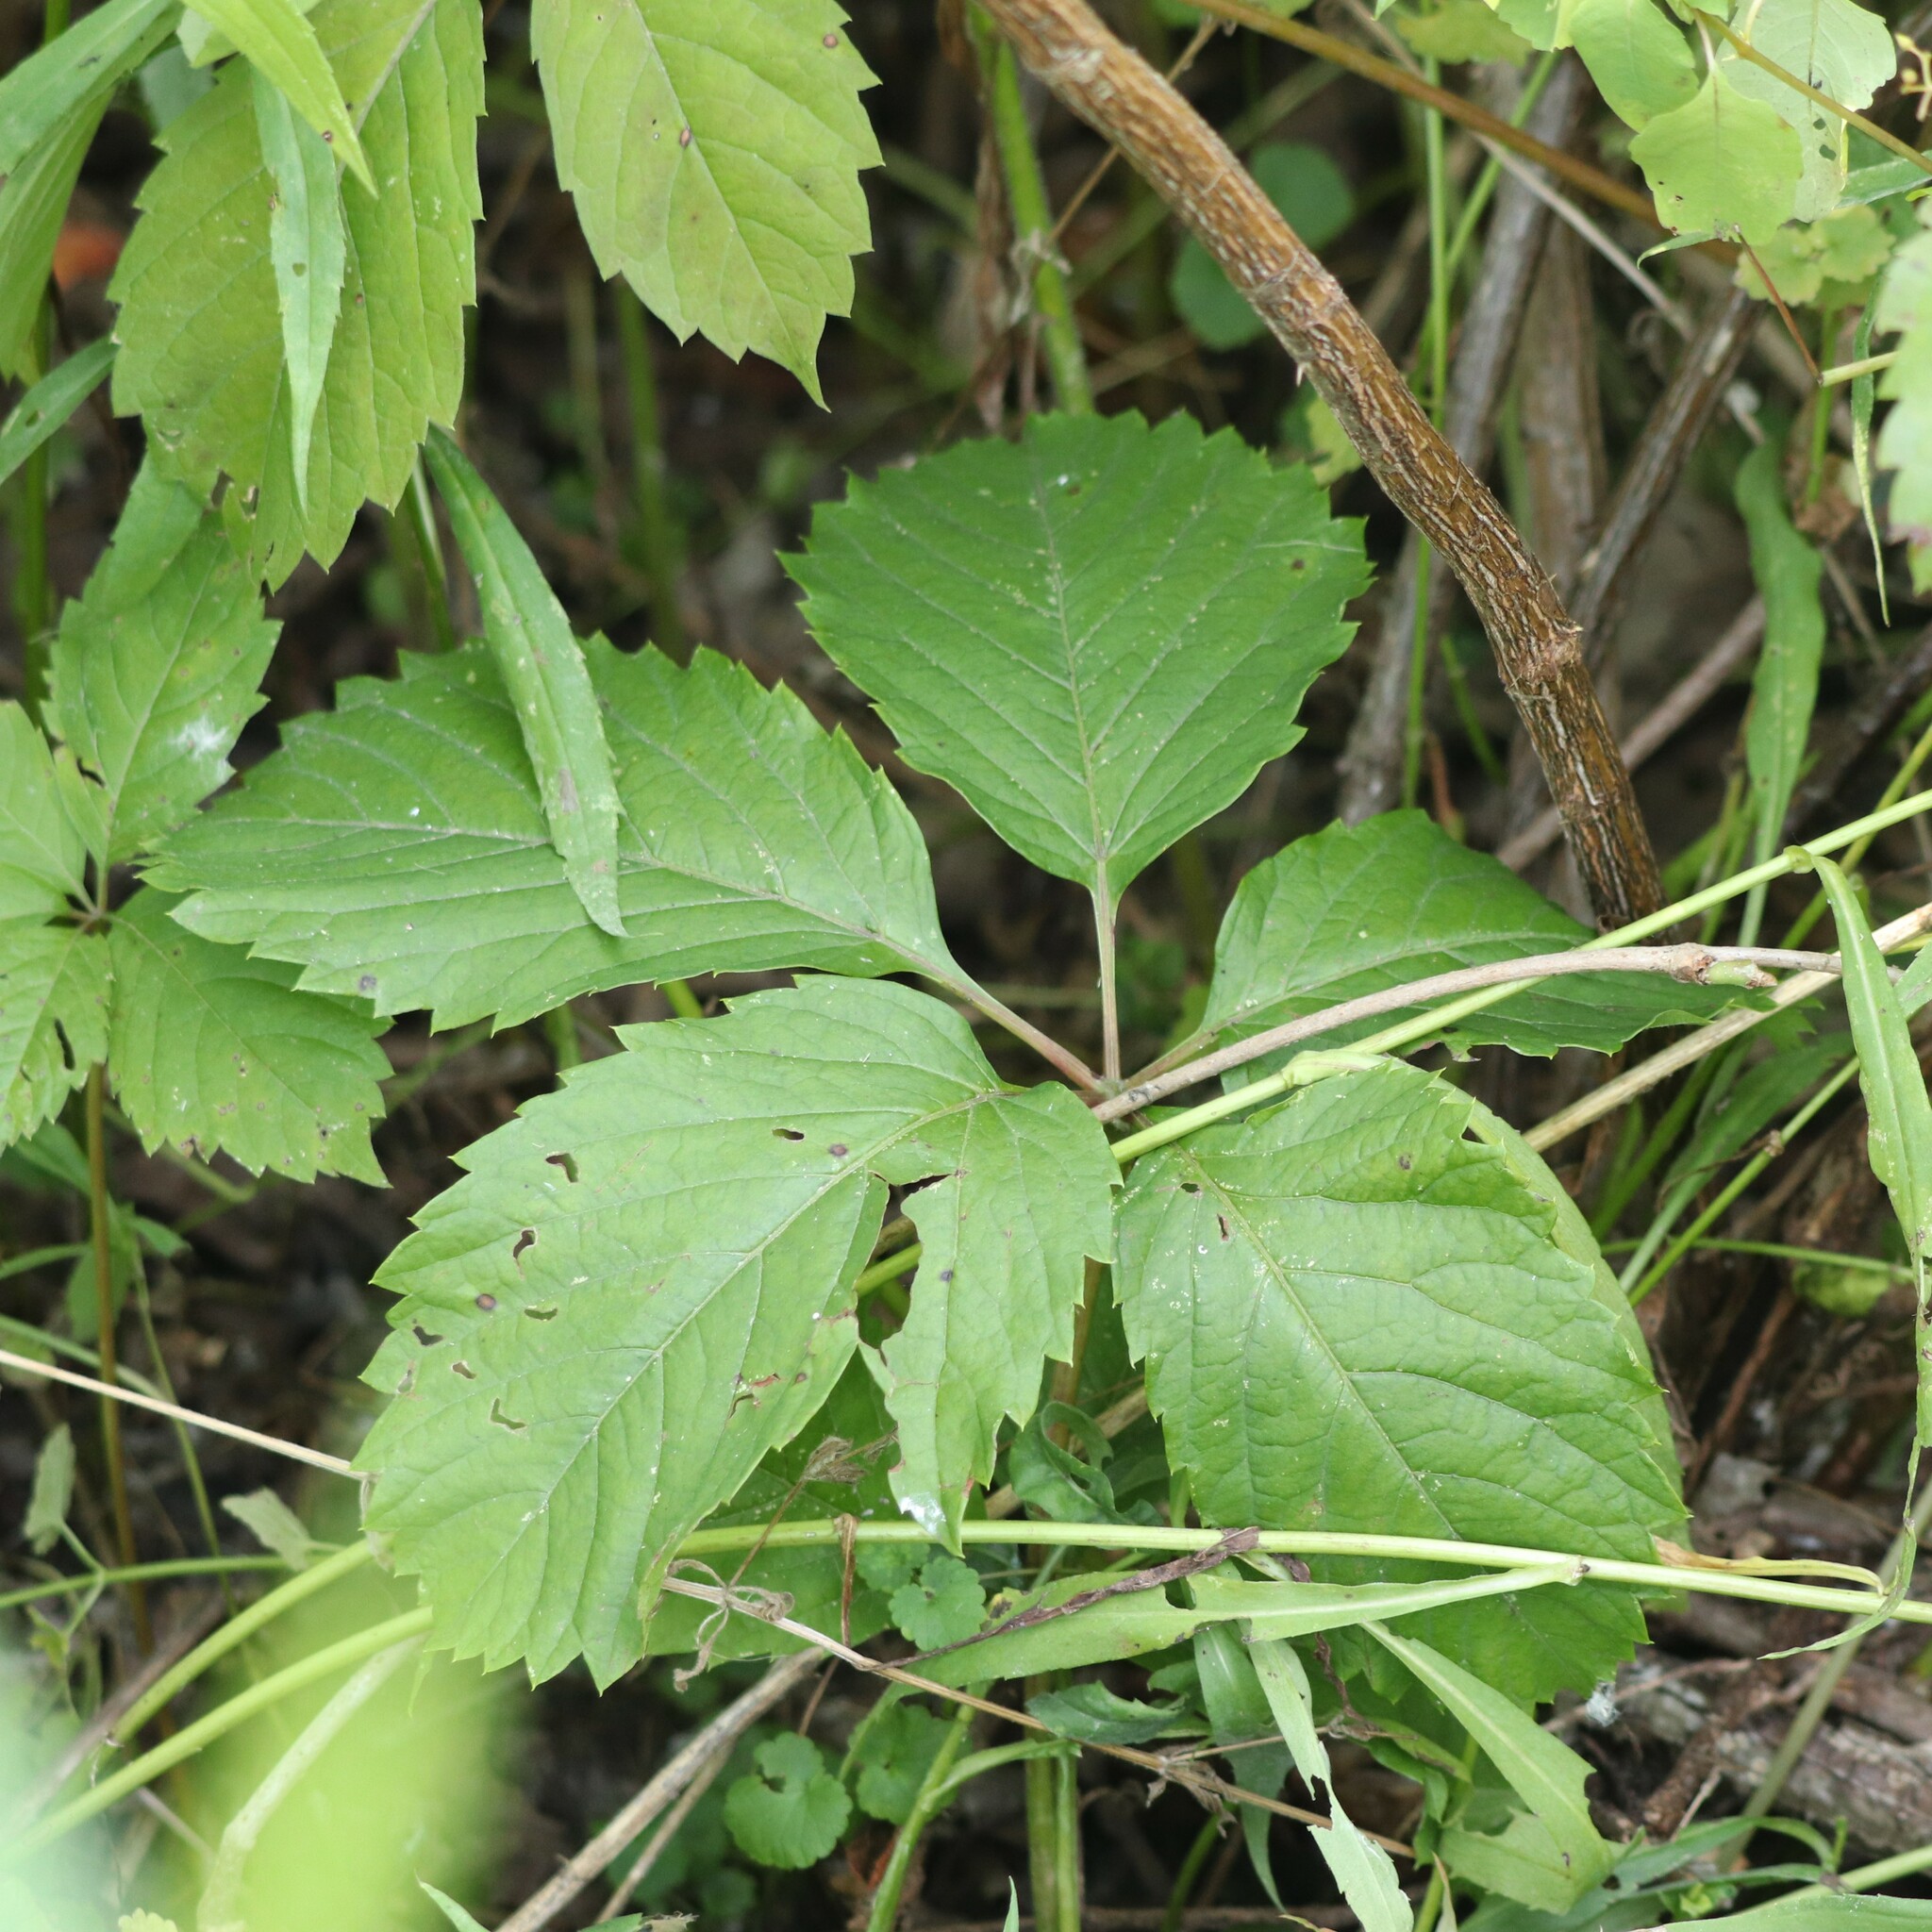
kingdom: Plantae
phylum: Tracheophyta
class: Magnoliopsida
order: Vitales
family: Vitaceae
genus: Parthenocissus
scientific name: Parthenocissus inserta
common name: False virginia-creeper
